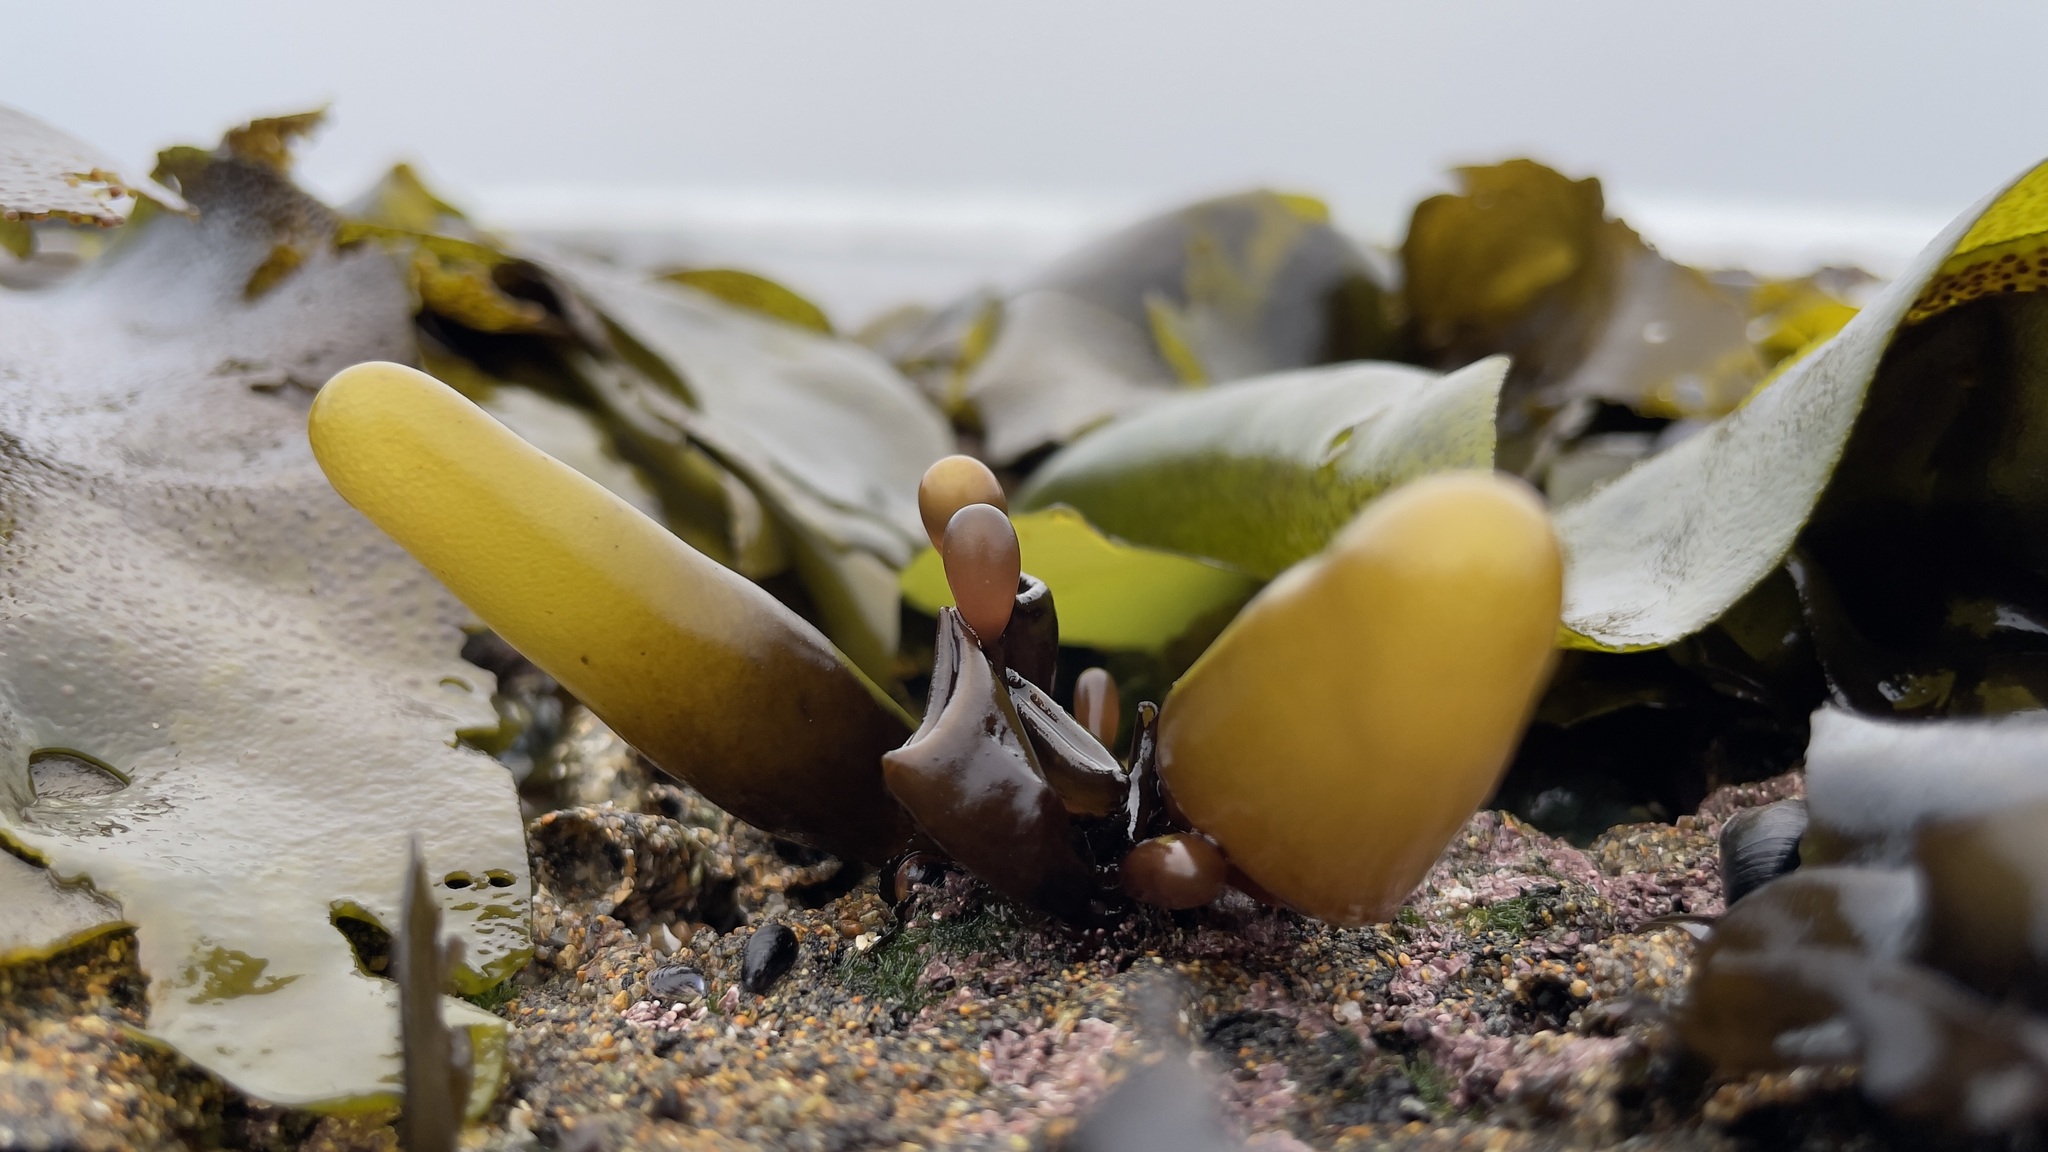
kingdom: Plantae
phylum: Rhodophyta
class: Florideophyceae
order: Palmariales
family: Palmariaceae
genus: Halosaccion
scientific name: Halosaccion glandiforme
